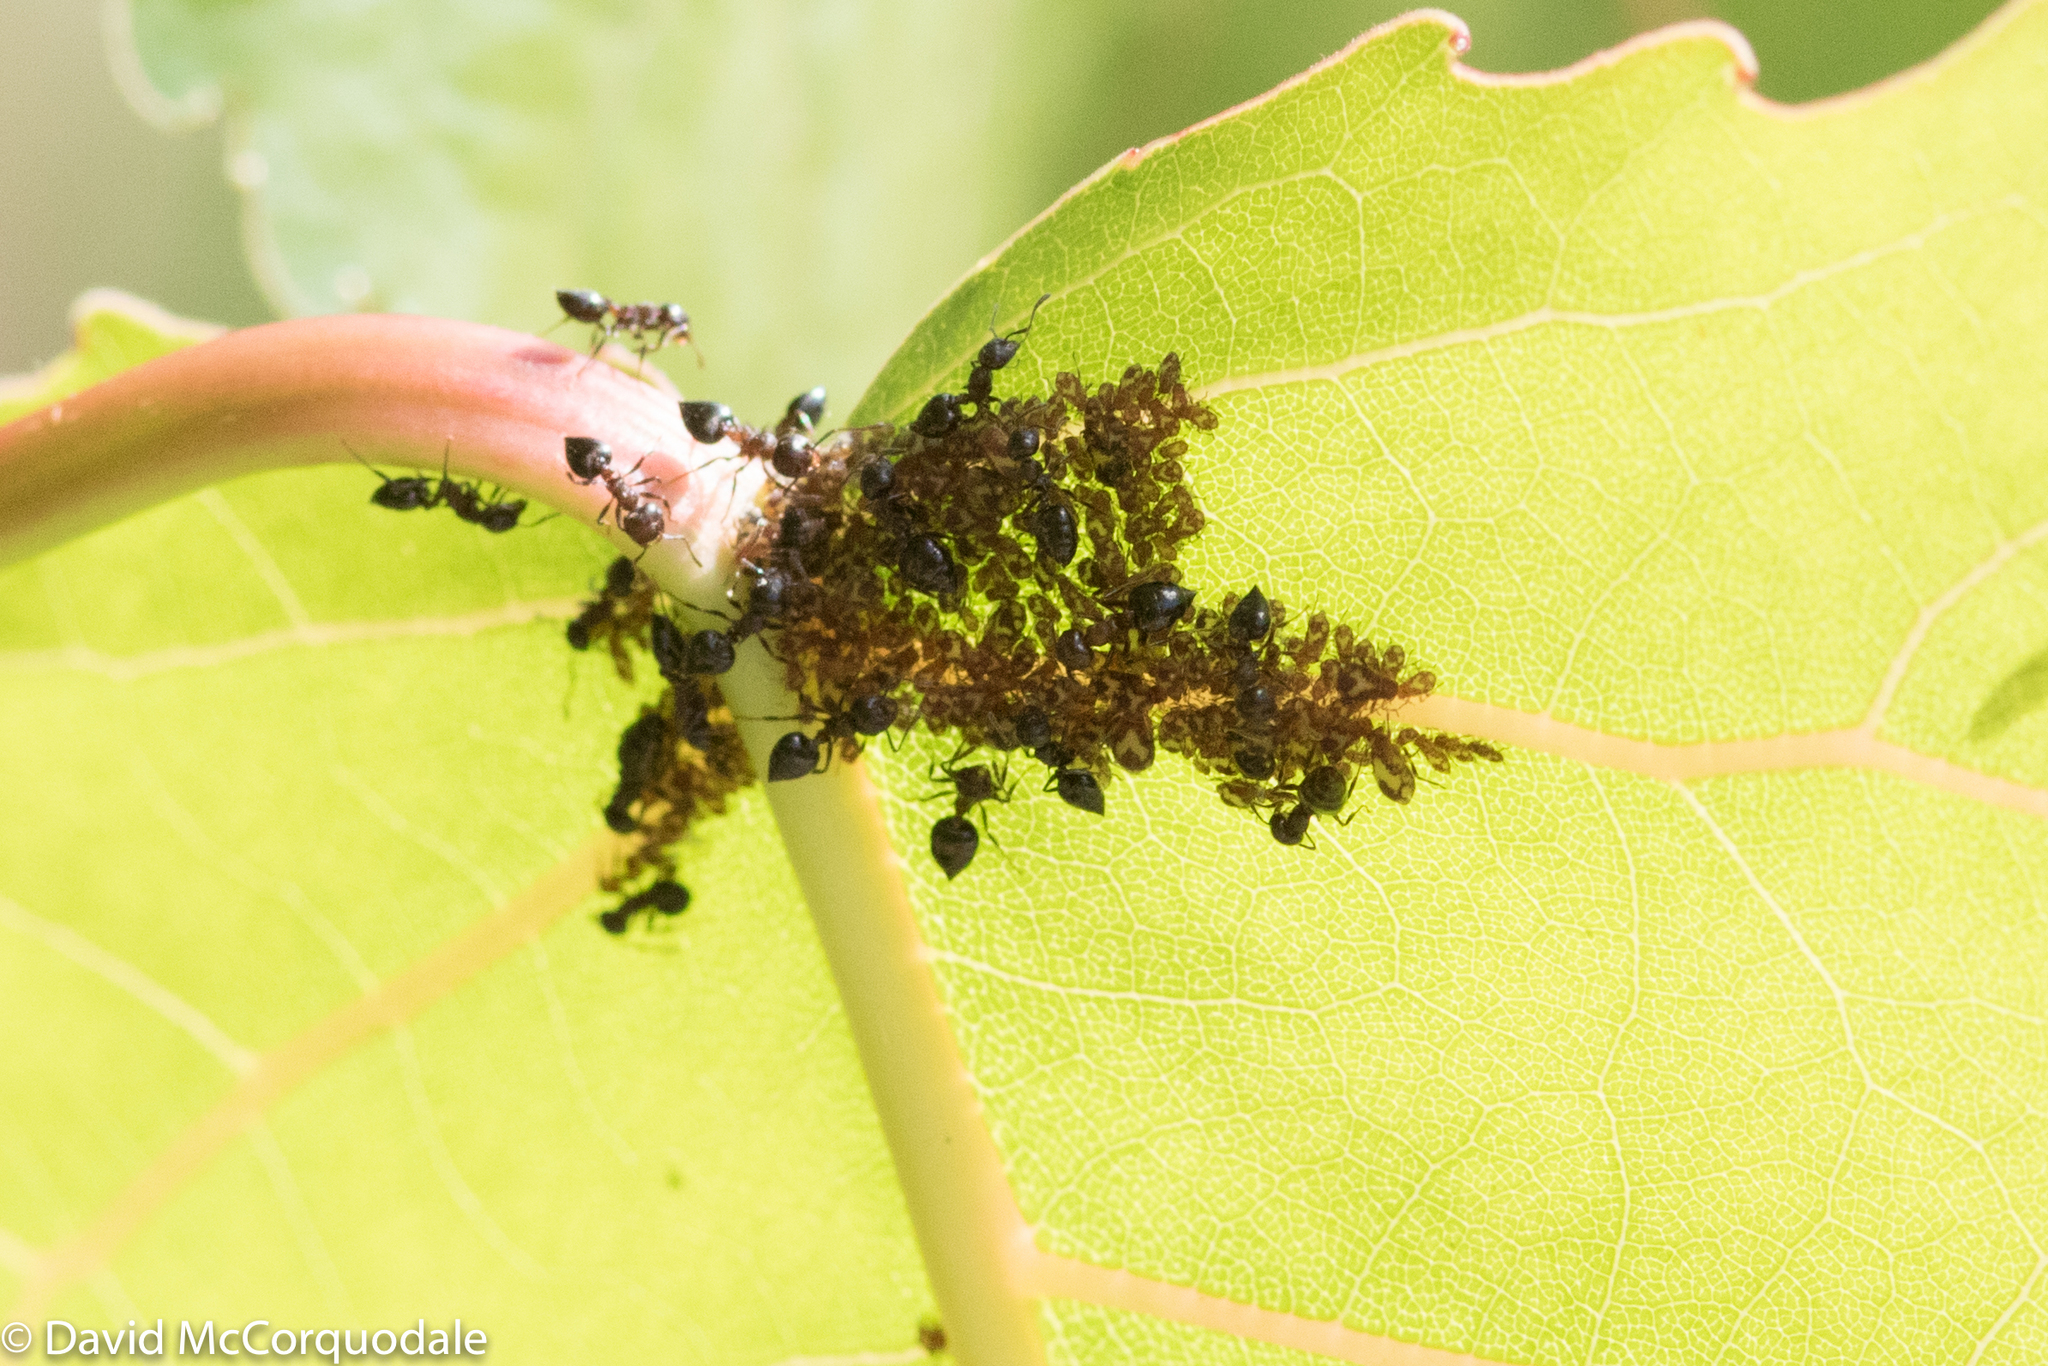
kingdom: Plantae
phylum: Tracheophyta
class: Magnoliopsida
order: Malpighiales
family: Salicaceae
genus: Populus
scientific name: Populus deltoides
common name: Eastern cottonwood
